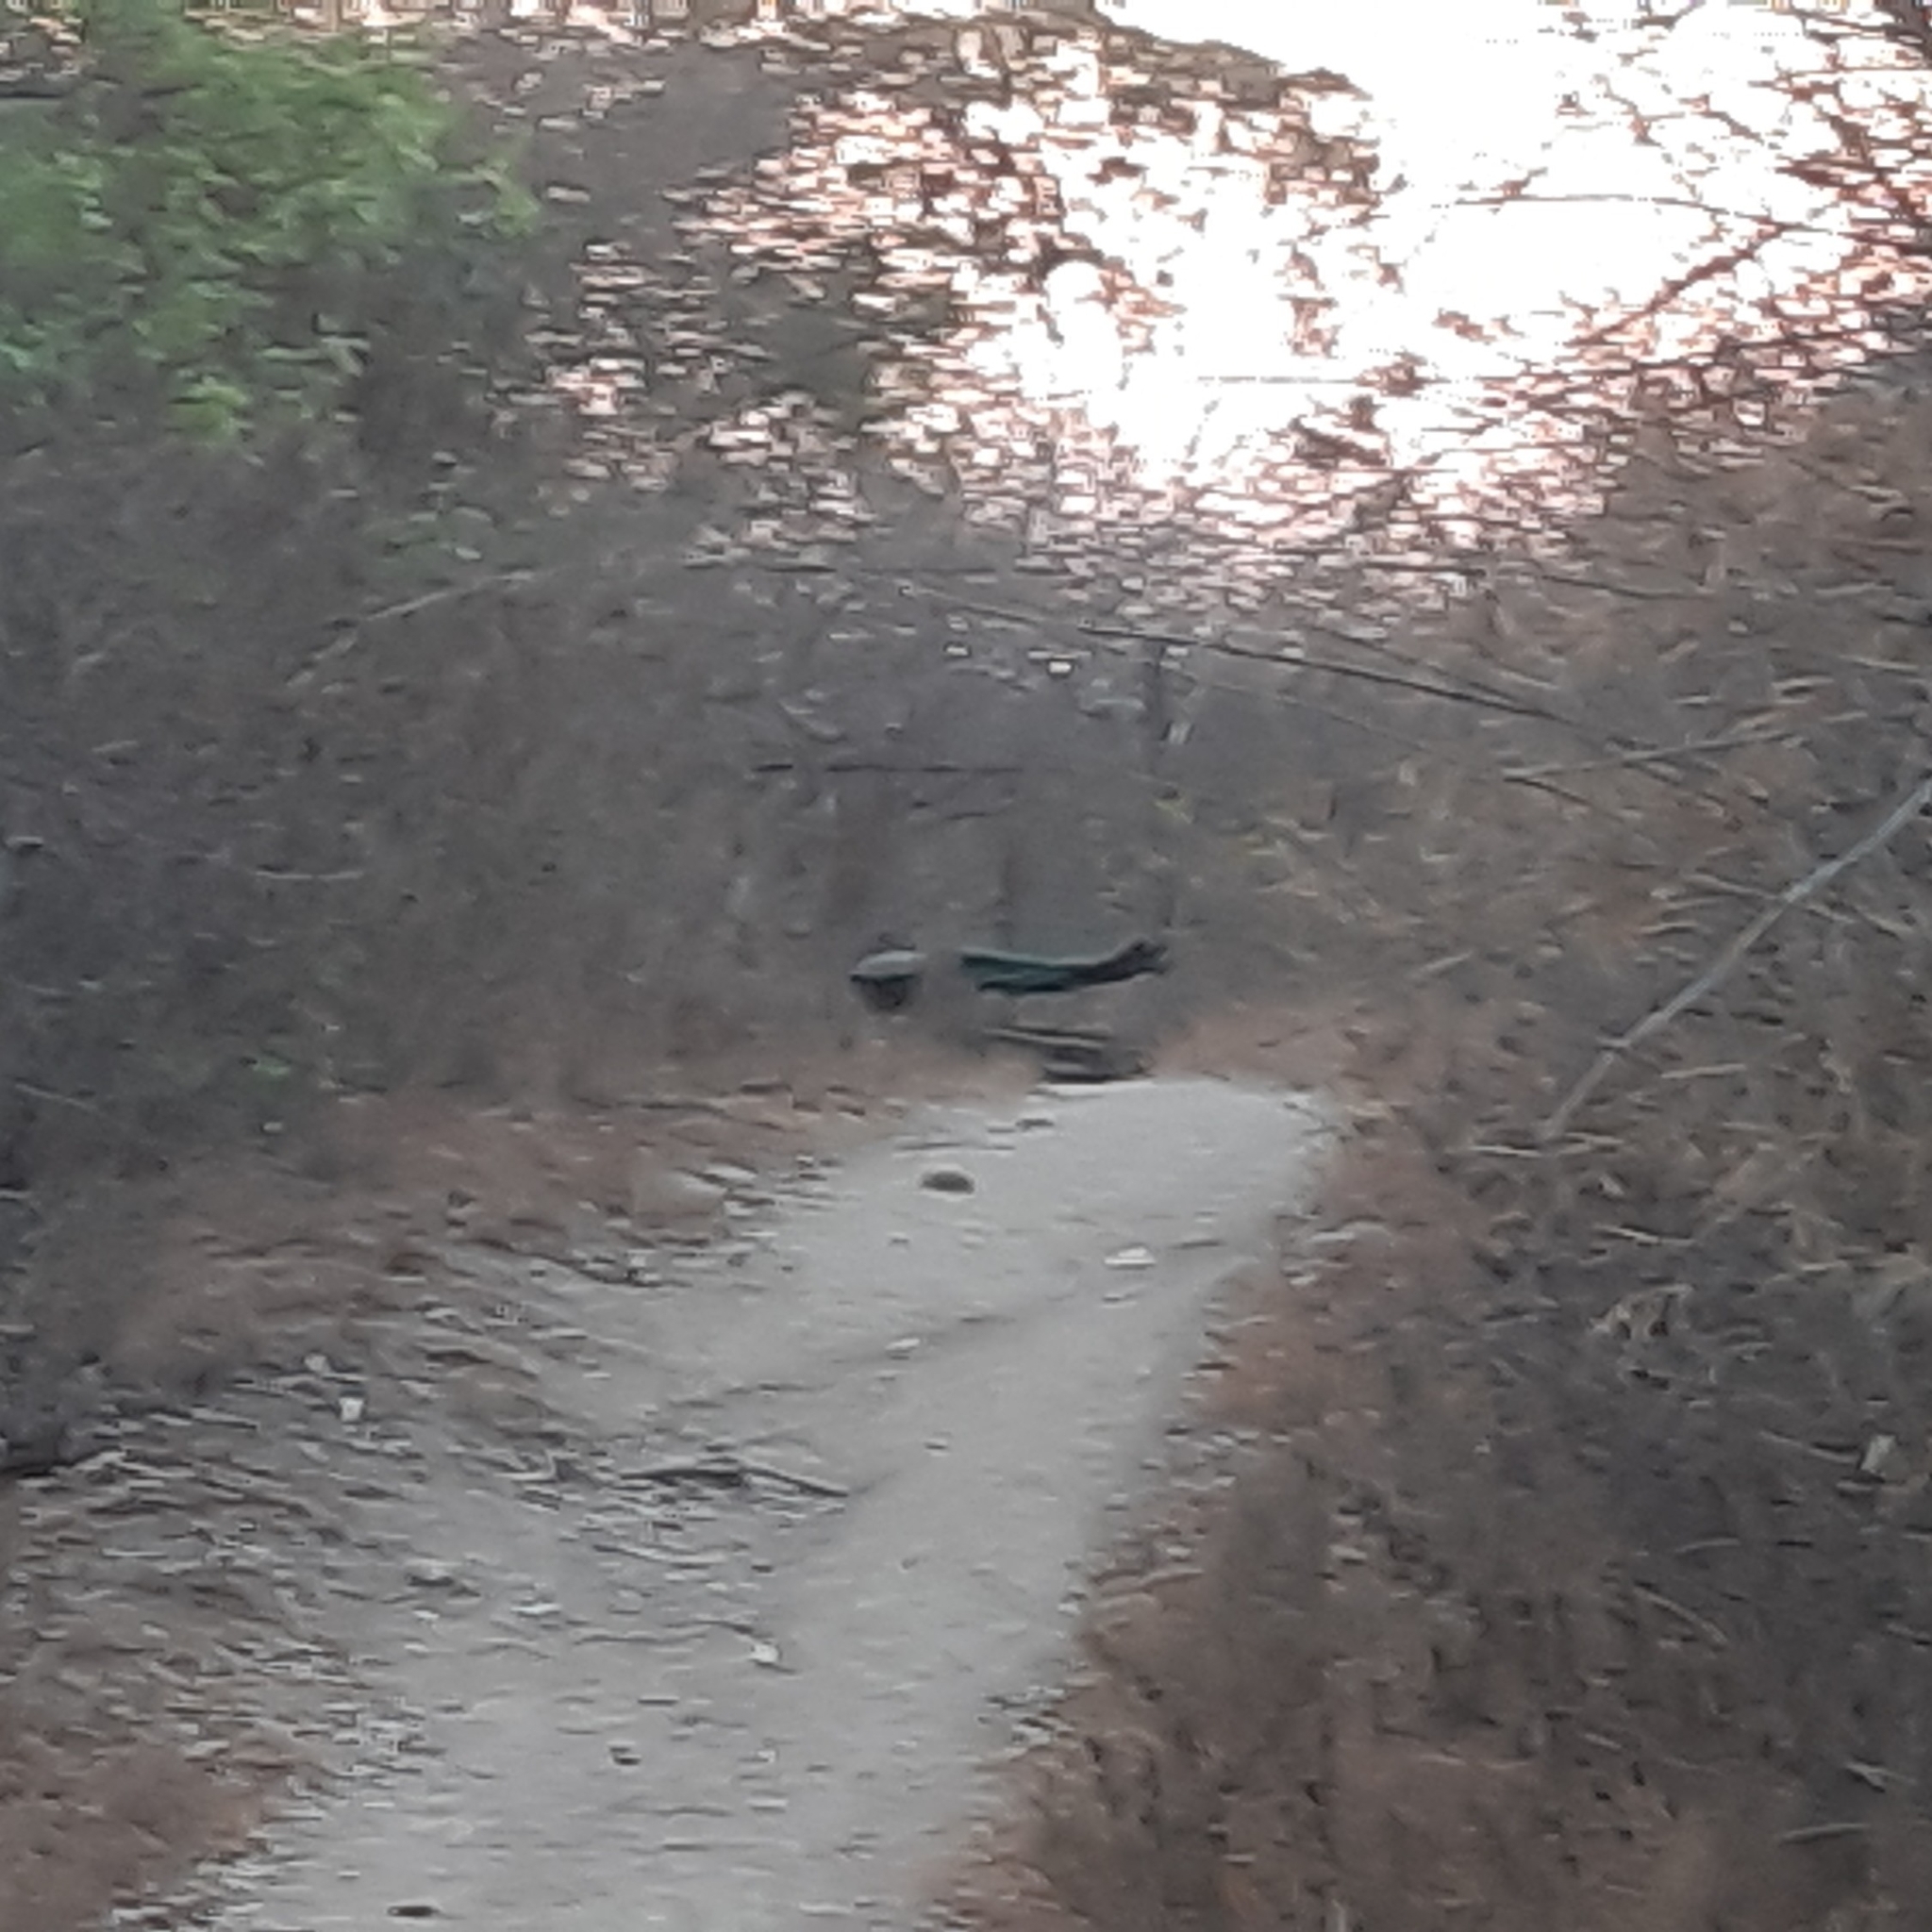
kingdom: Animalia
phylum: Chordata
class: Aves
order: Galliformes
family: Phasianidae
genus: Pavo
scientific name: Pavo cristatus
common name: Indian peafowl
